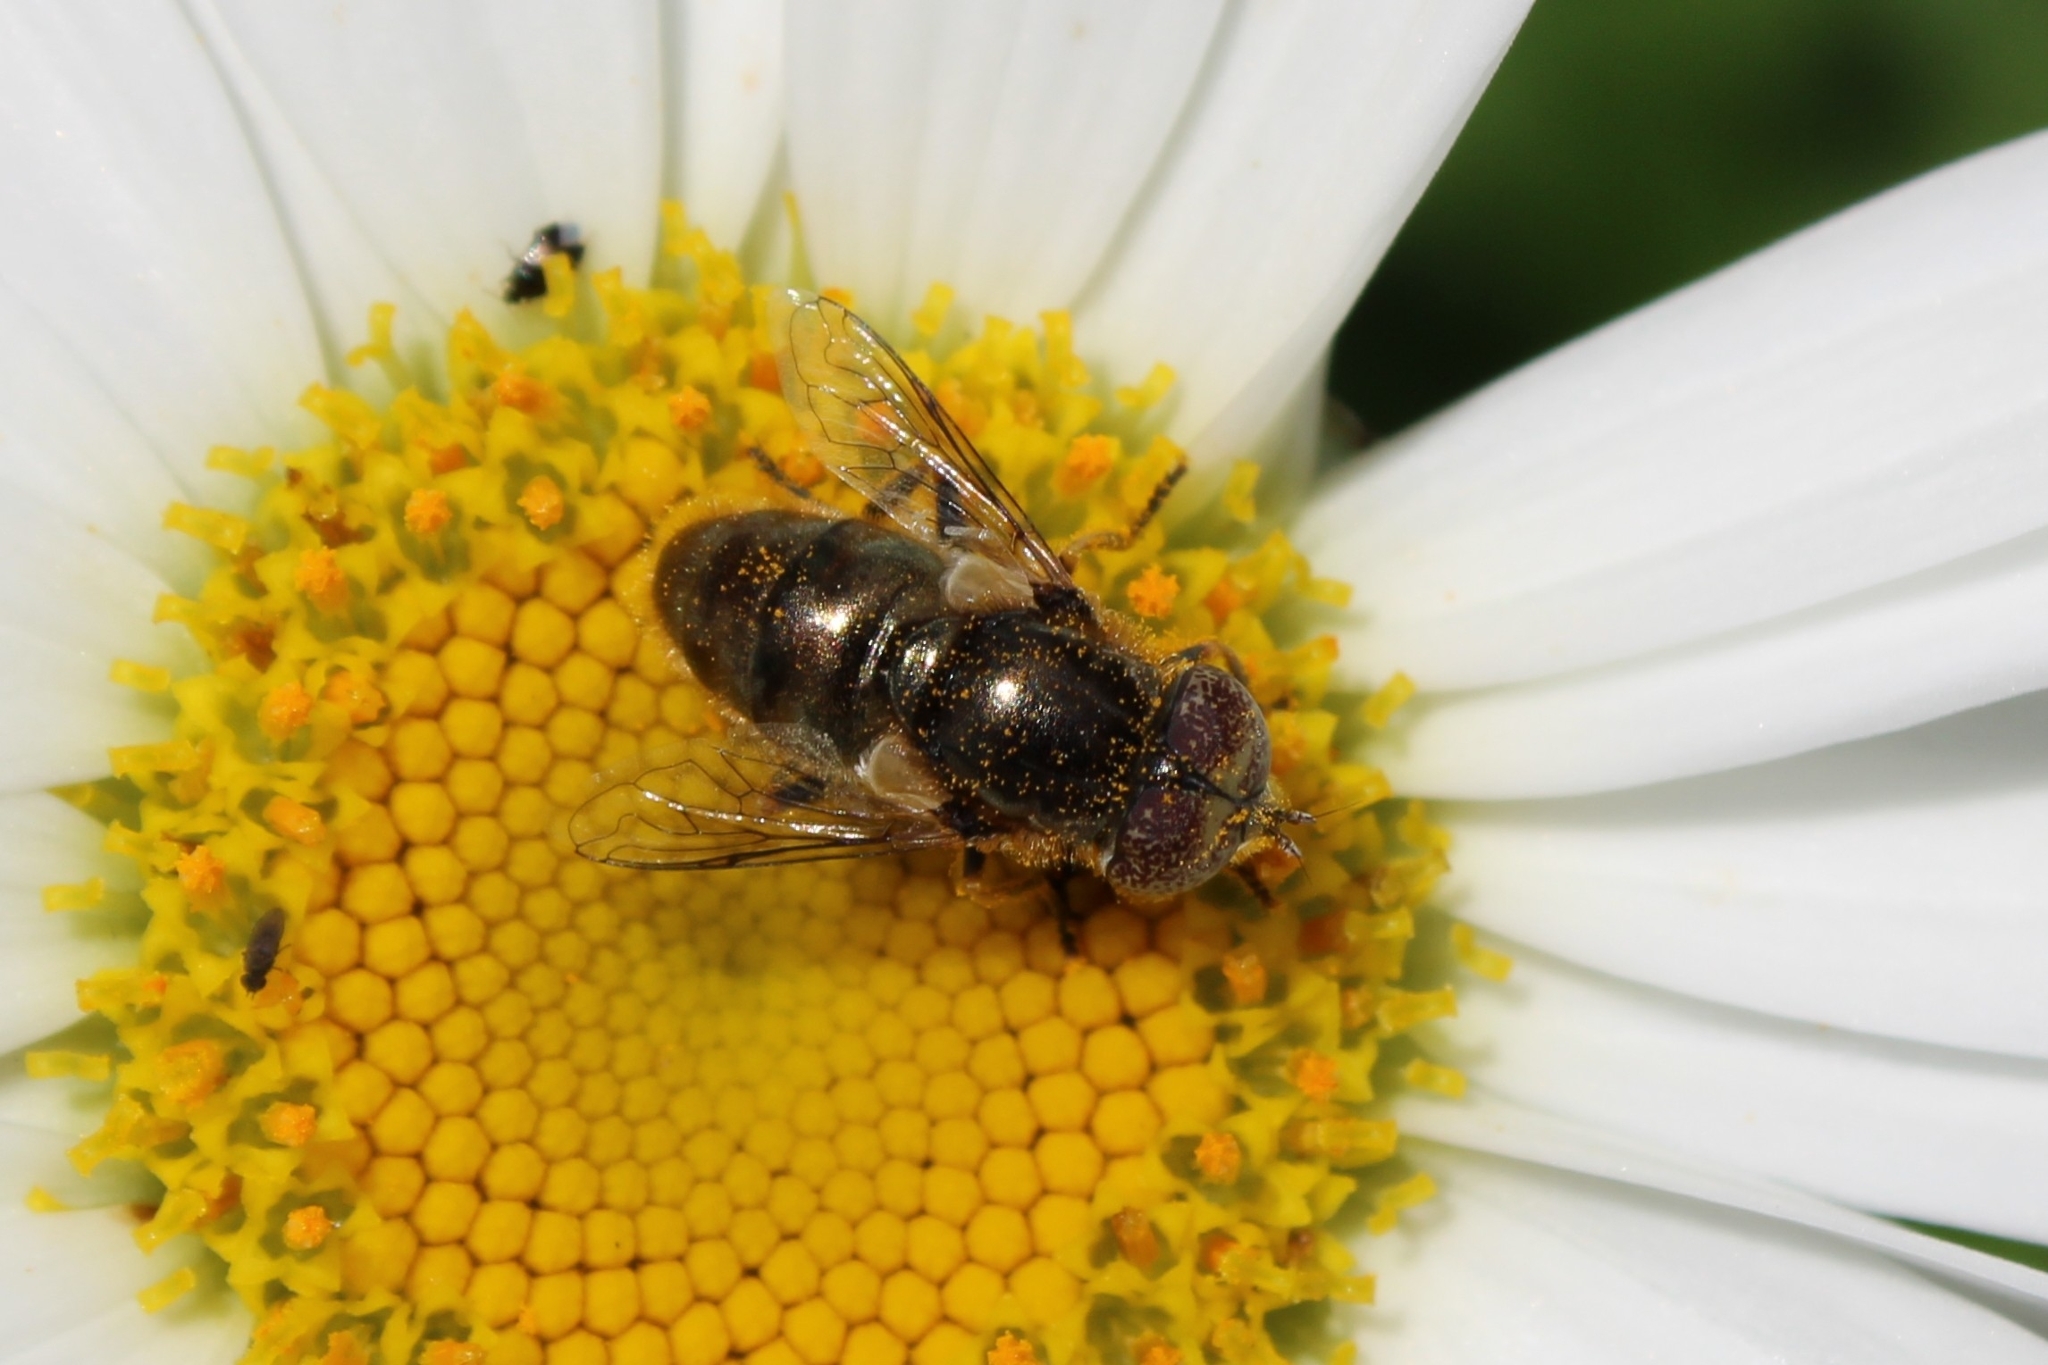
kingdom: Animalia
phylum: Arthropoda
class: Insecta
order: Diptera
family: Syrphidae
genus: Eristalinus
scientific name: Eristalinus aeneus
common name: Syrphid fly
